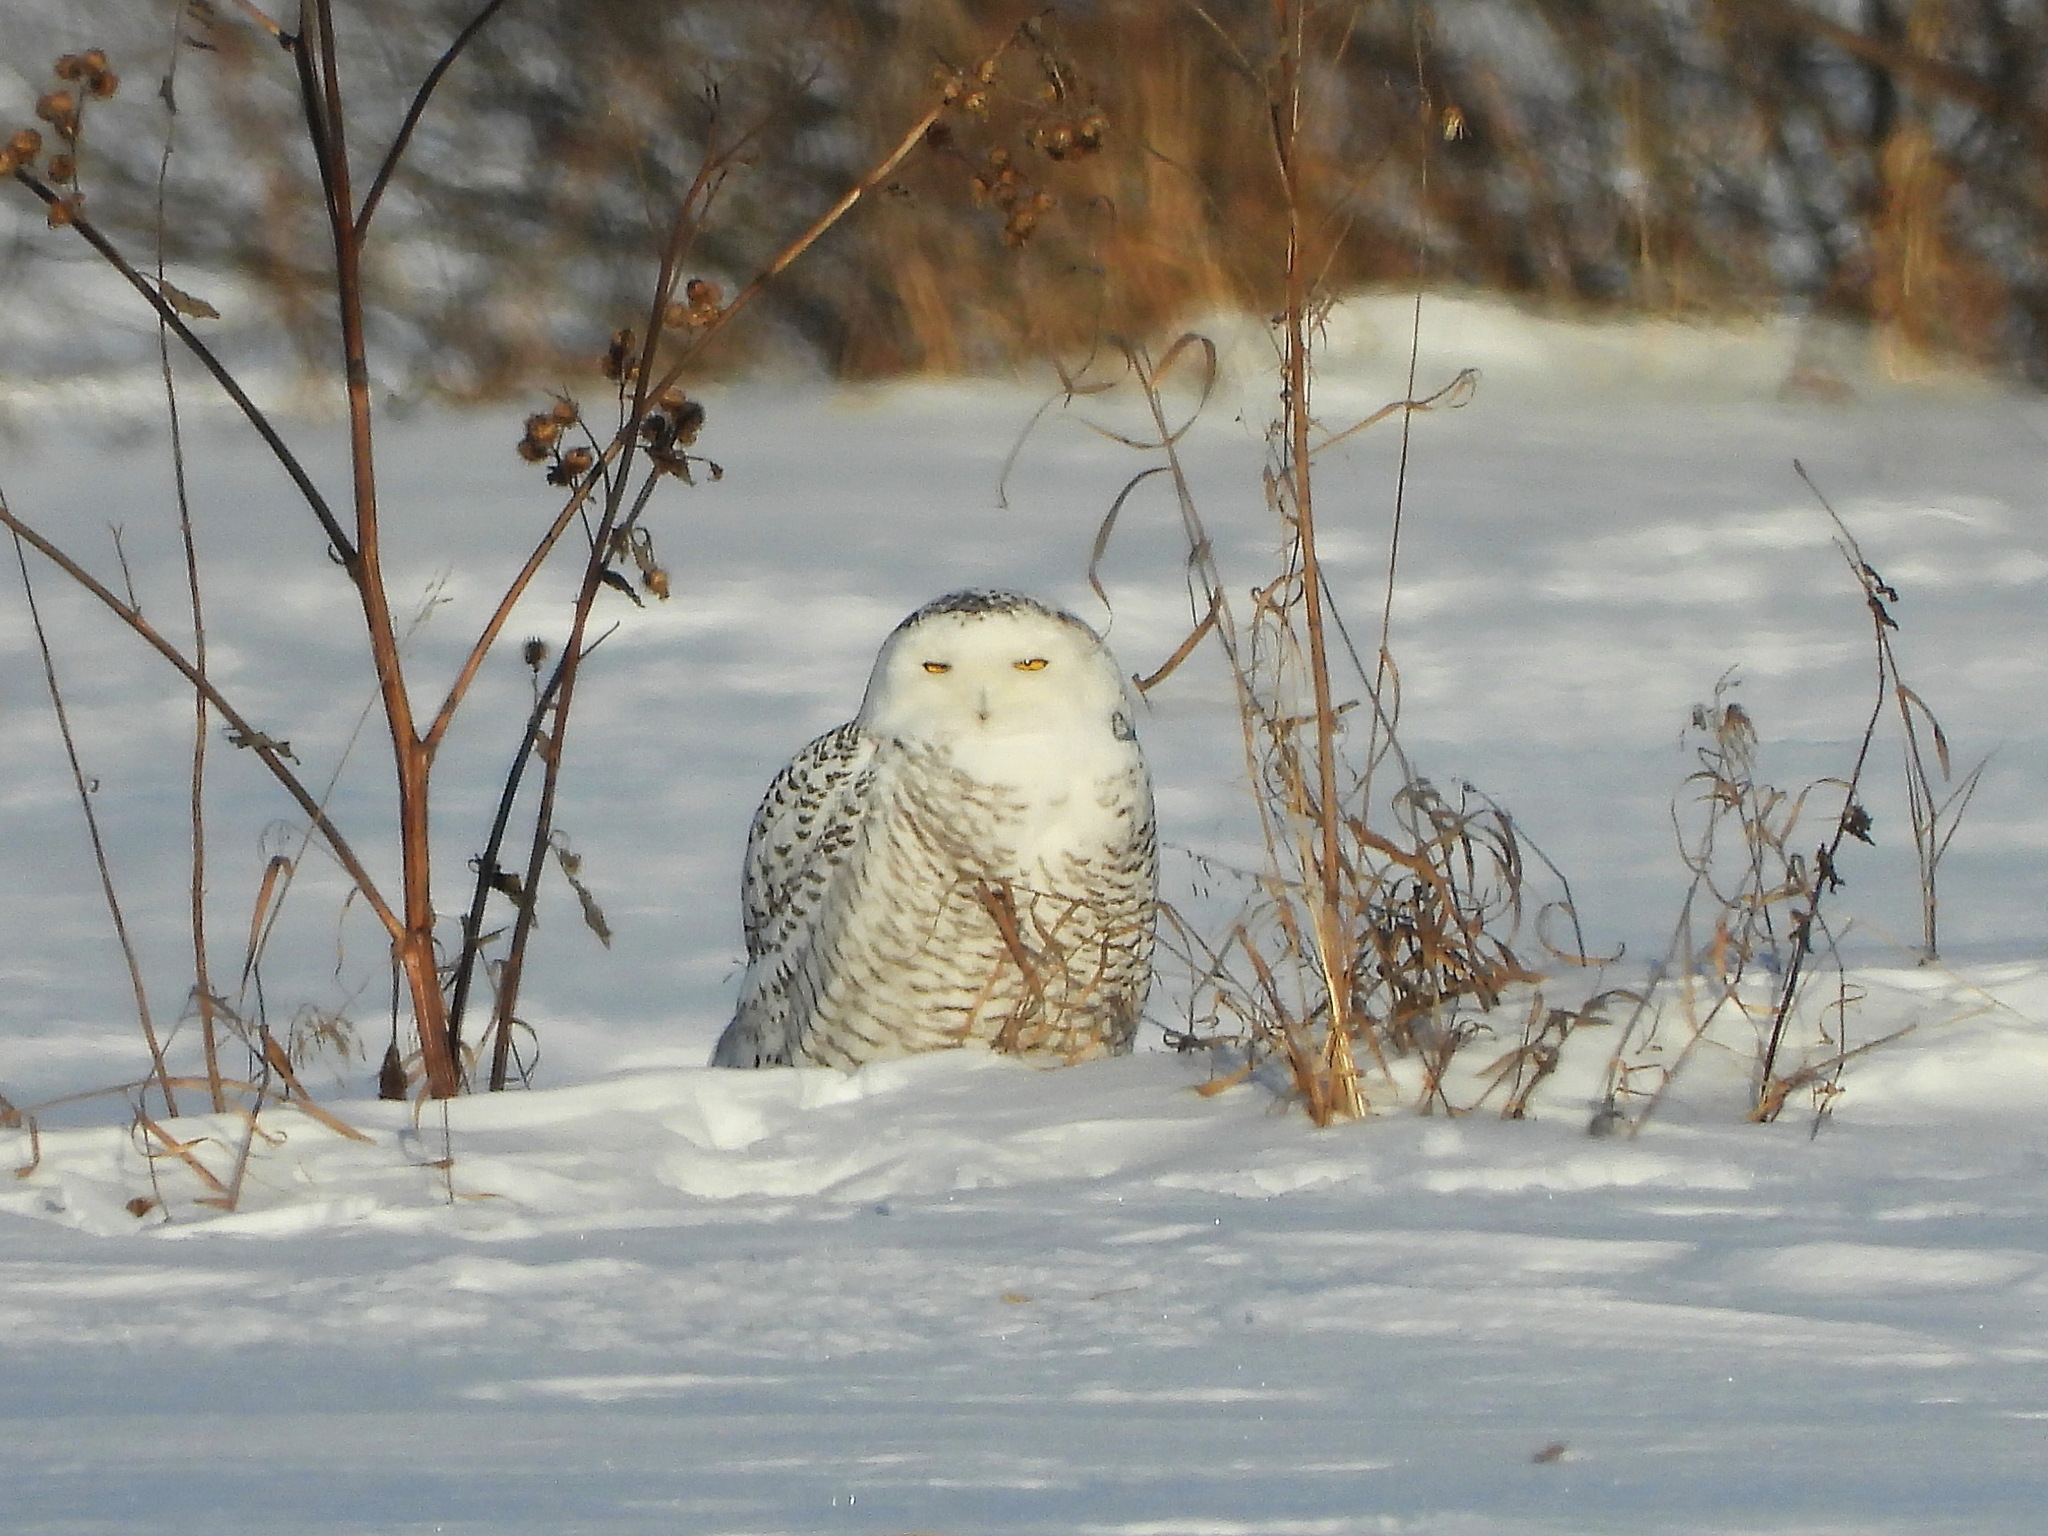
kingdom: Animalia
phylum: Chordata
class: Aves
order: Strigiformes
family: Strigidae
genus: Bubo
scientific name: Bubo scandiacus
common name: Snowy owl
